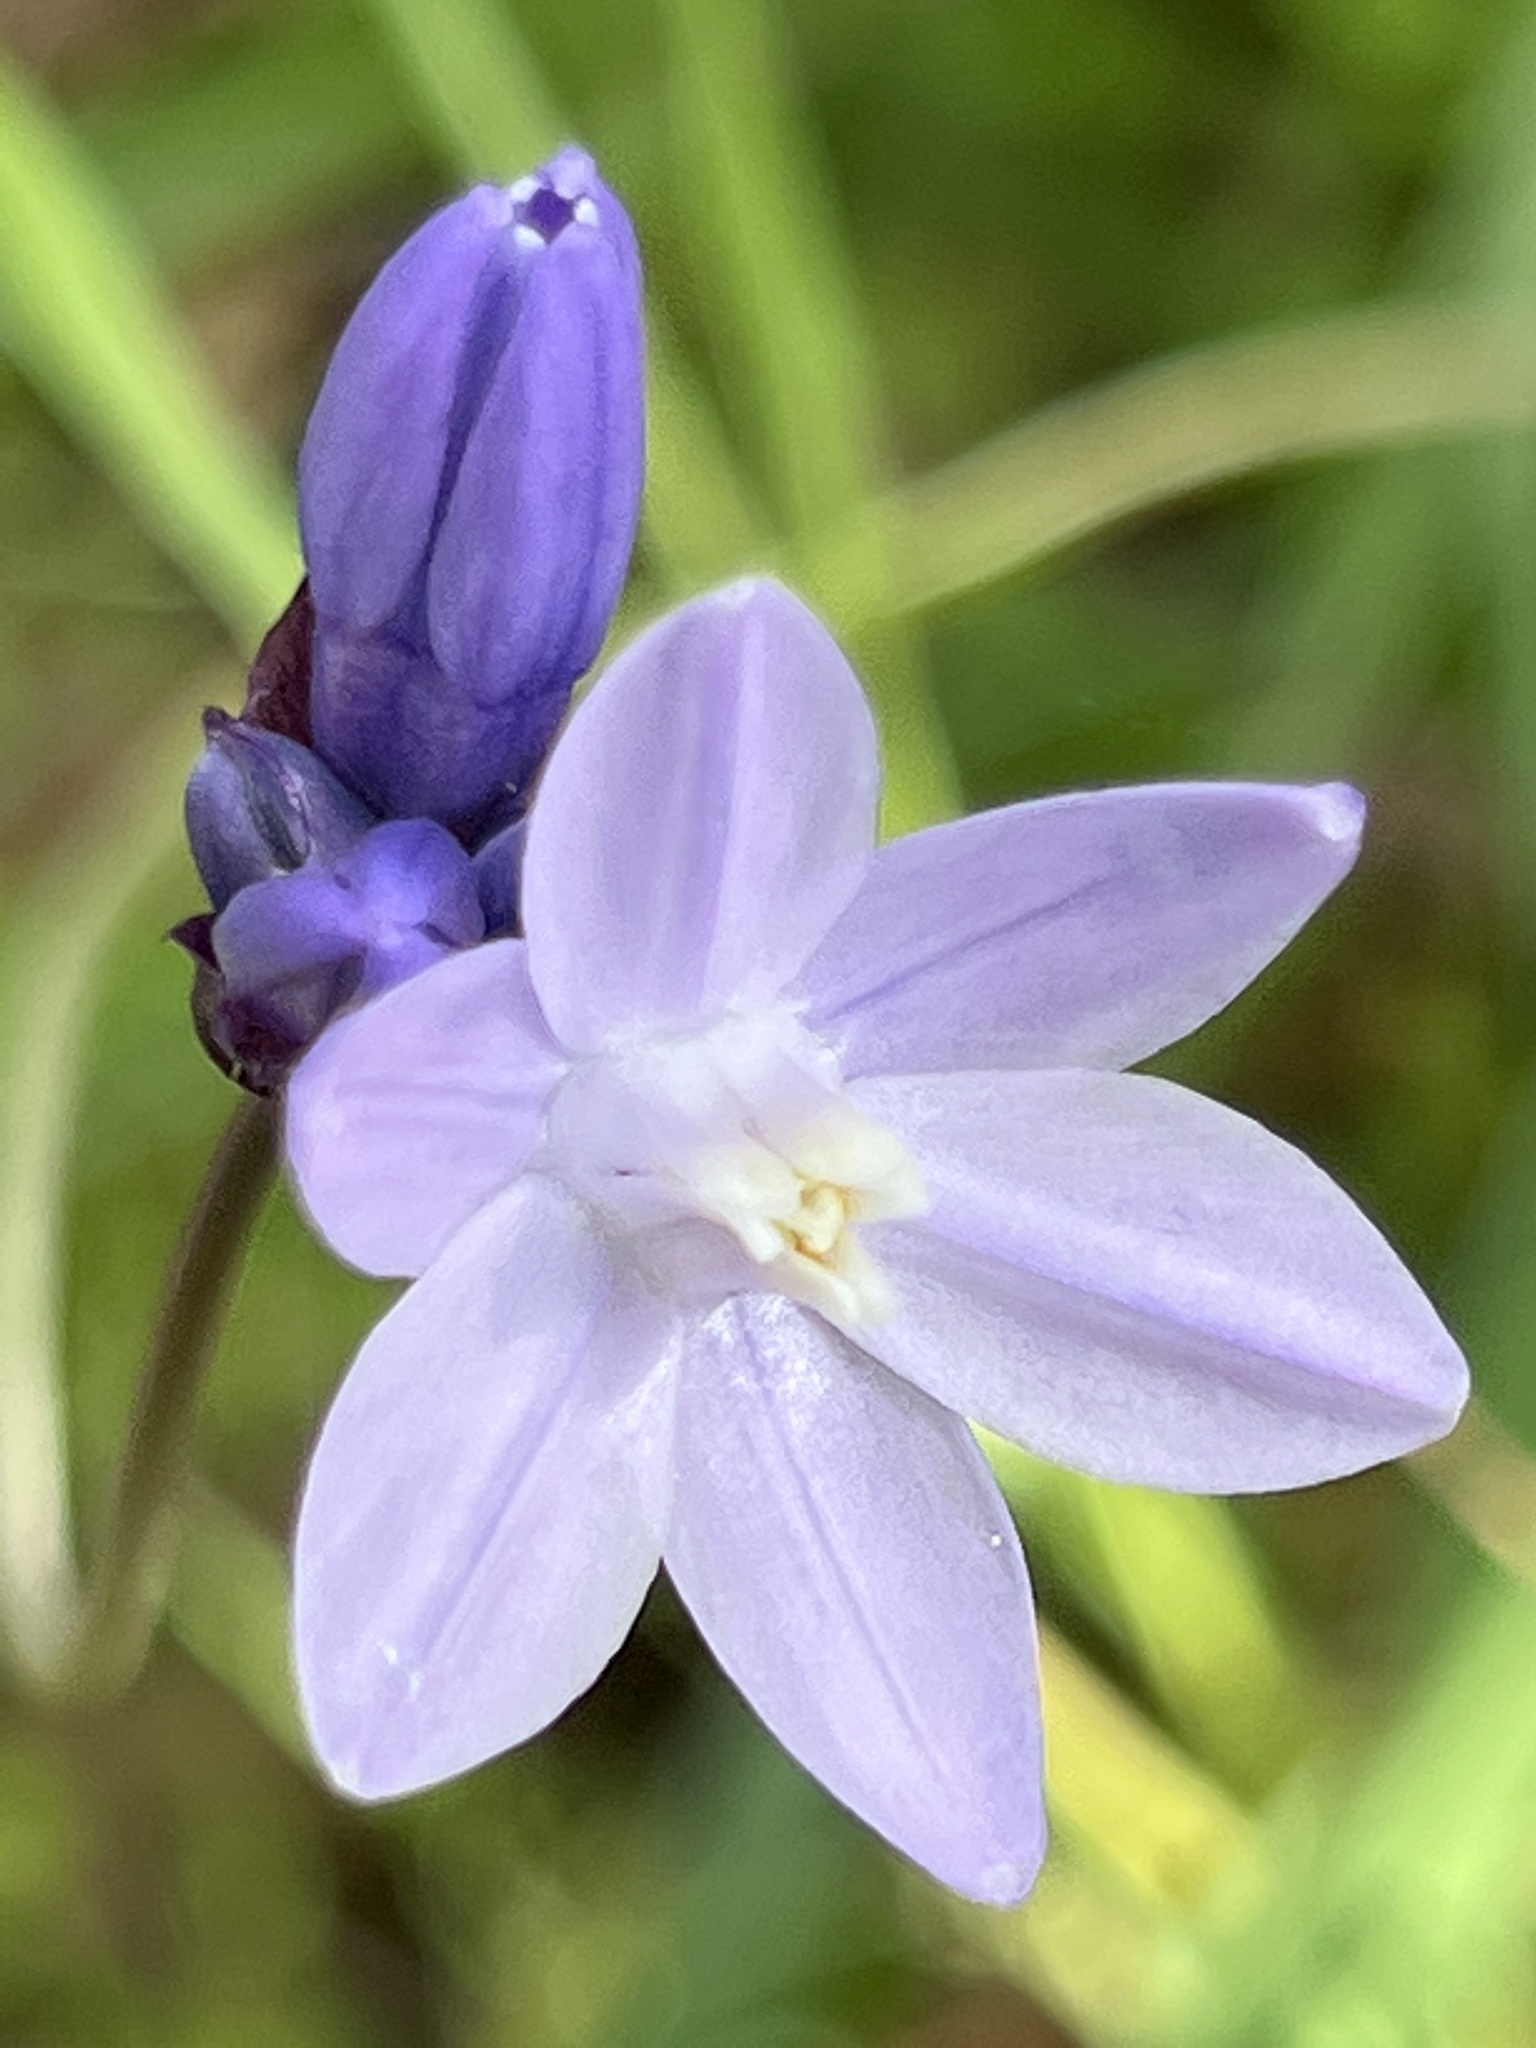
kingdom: Plantae
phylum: Tracheophyta
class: Liliopsida
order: Asparagales
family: Asparagaceae
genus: Dipterostemon
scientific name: Dipterostemon capitatus
